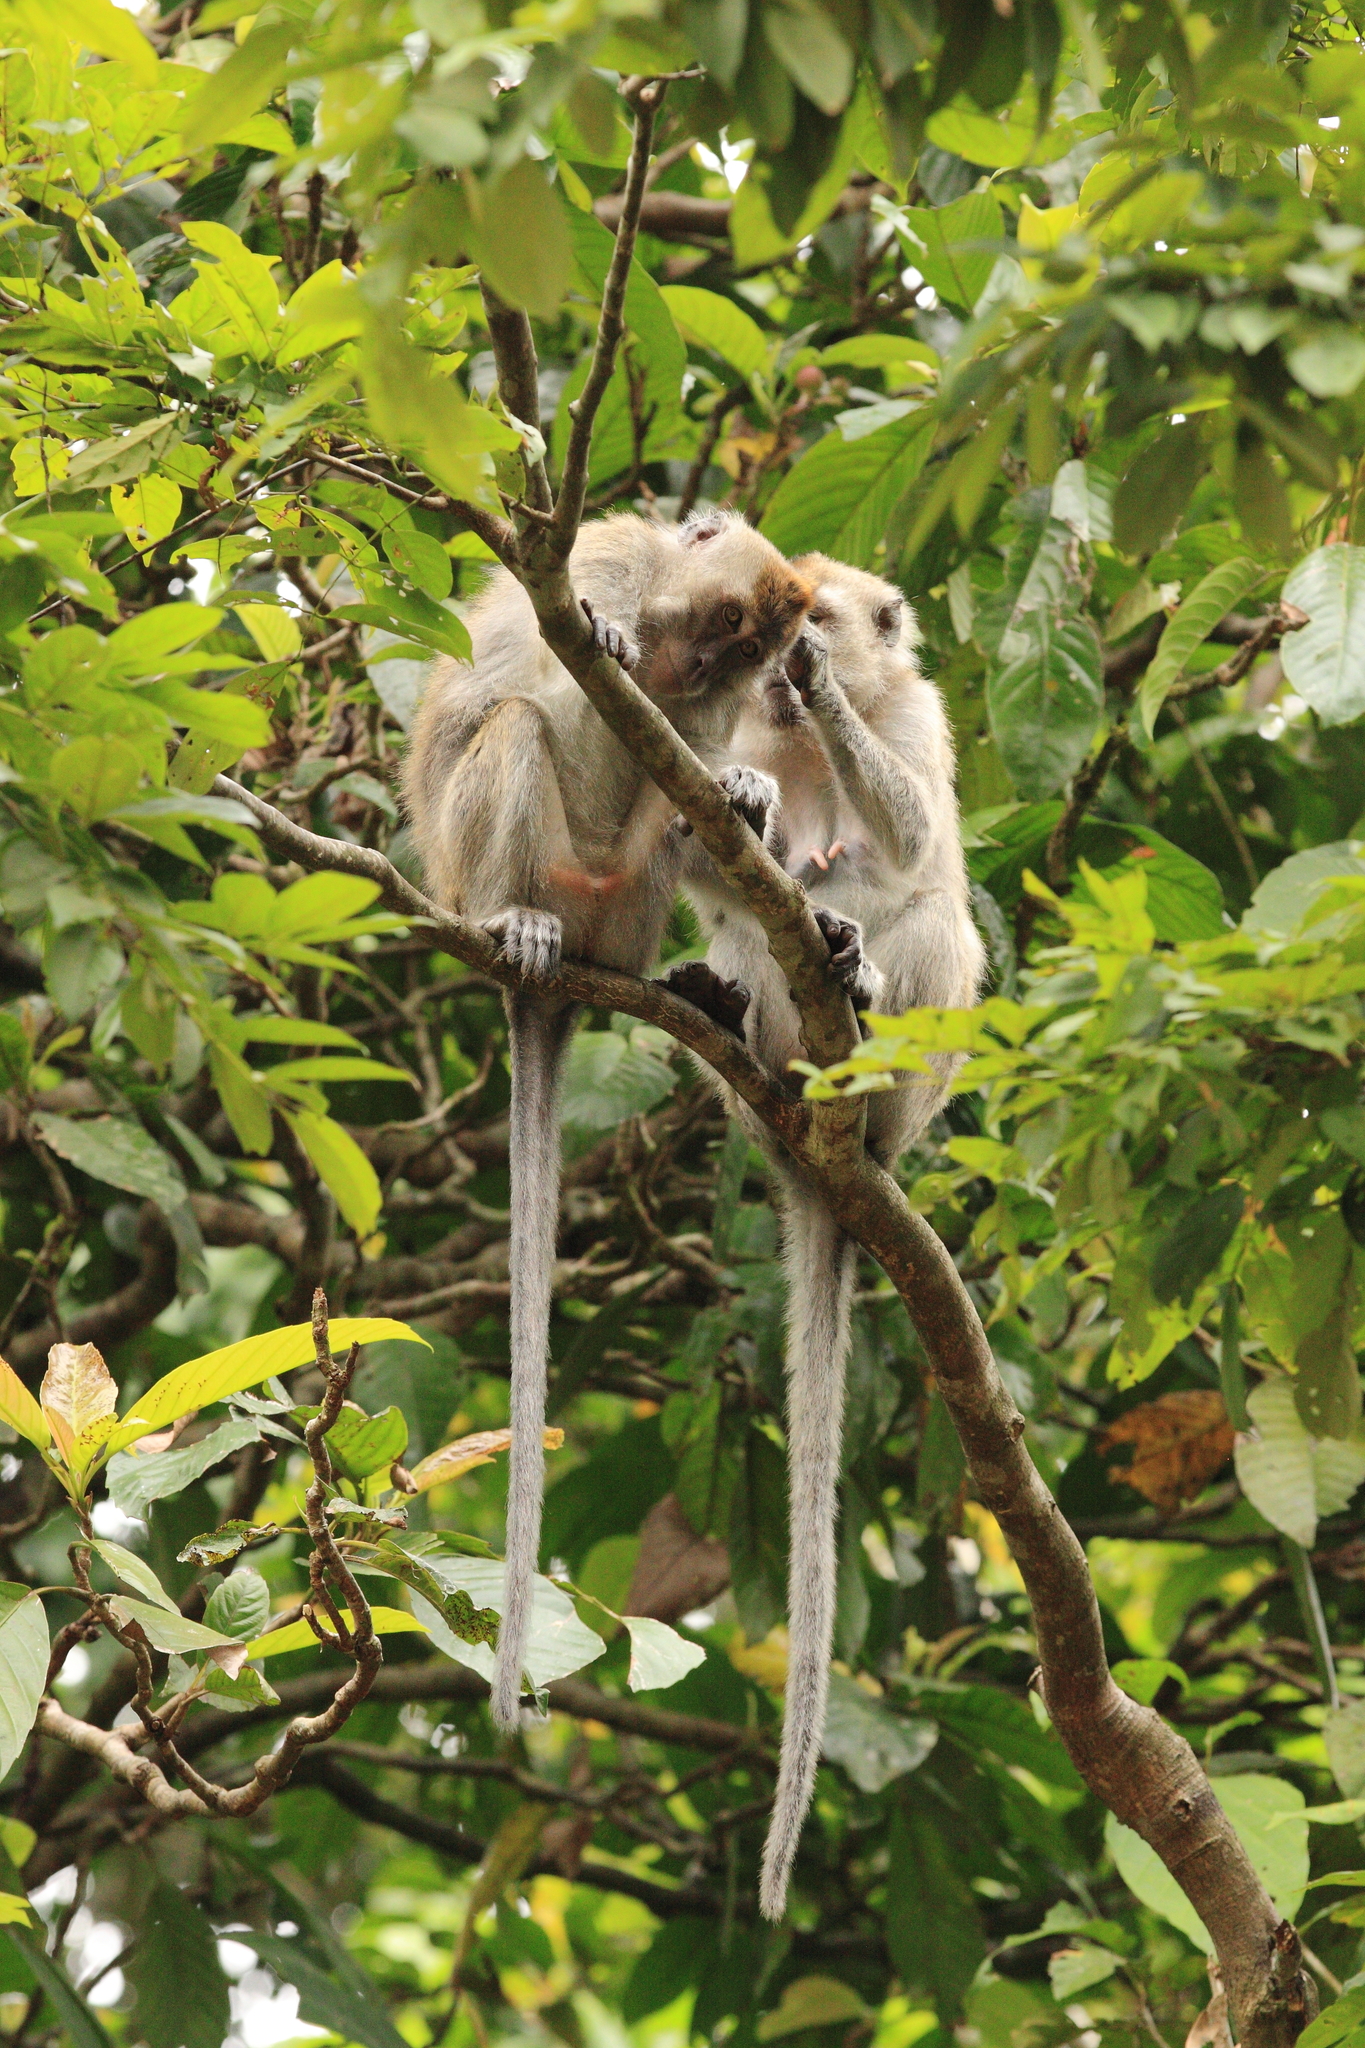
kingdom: Animalia
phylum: Chordata
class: Mammalia
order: Primates
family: Cercopithecidae
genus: Macaca
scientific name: Macaca fascicularis
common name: Crab-eating macaque
